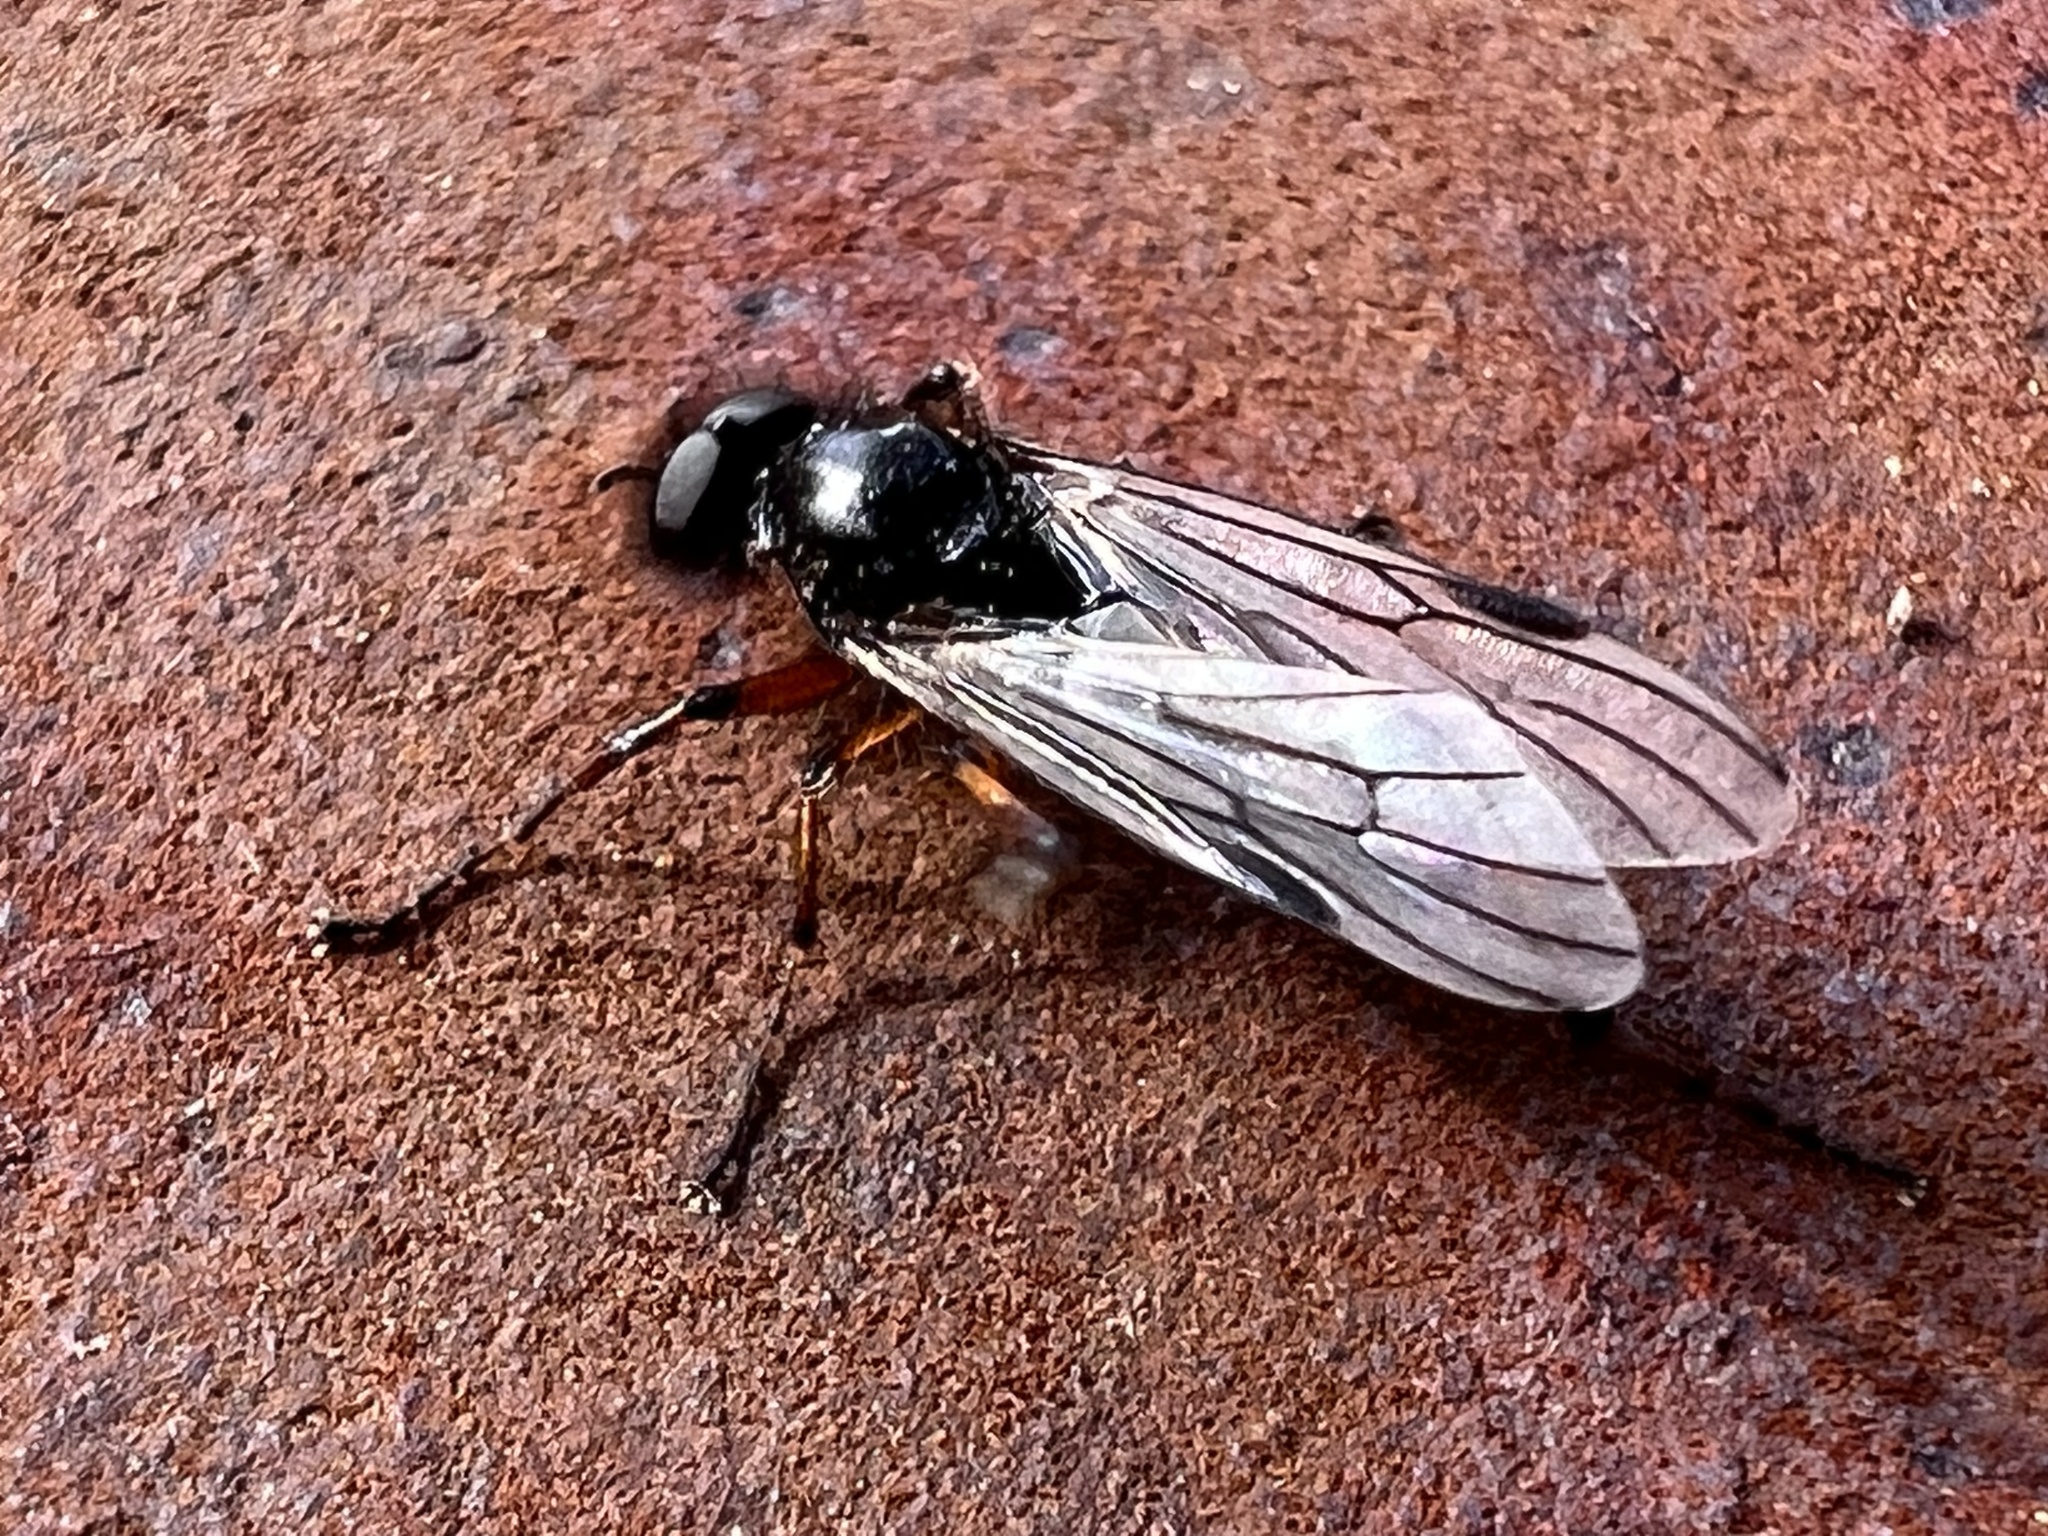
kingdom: Animalia
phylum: Arthropoda
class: Insecta
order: Diptera
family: Bibionidae
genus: Bibio
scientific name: Bibio xanthopus
